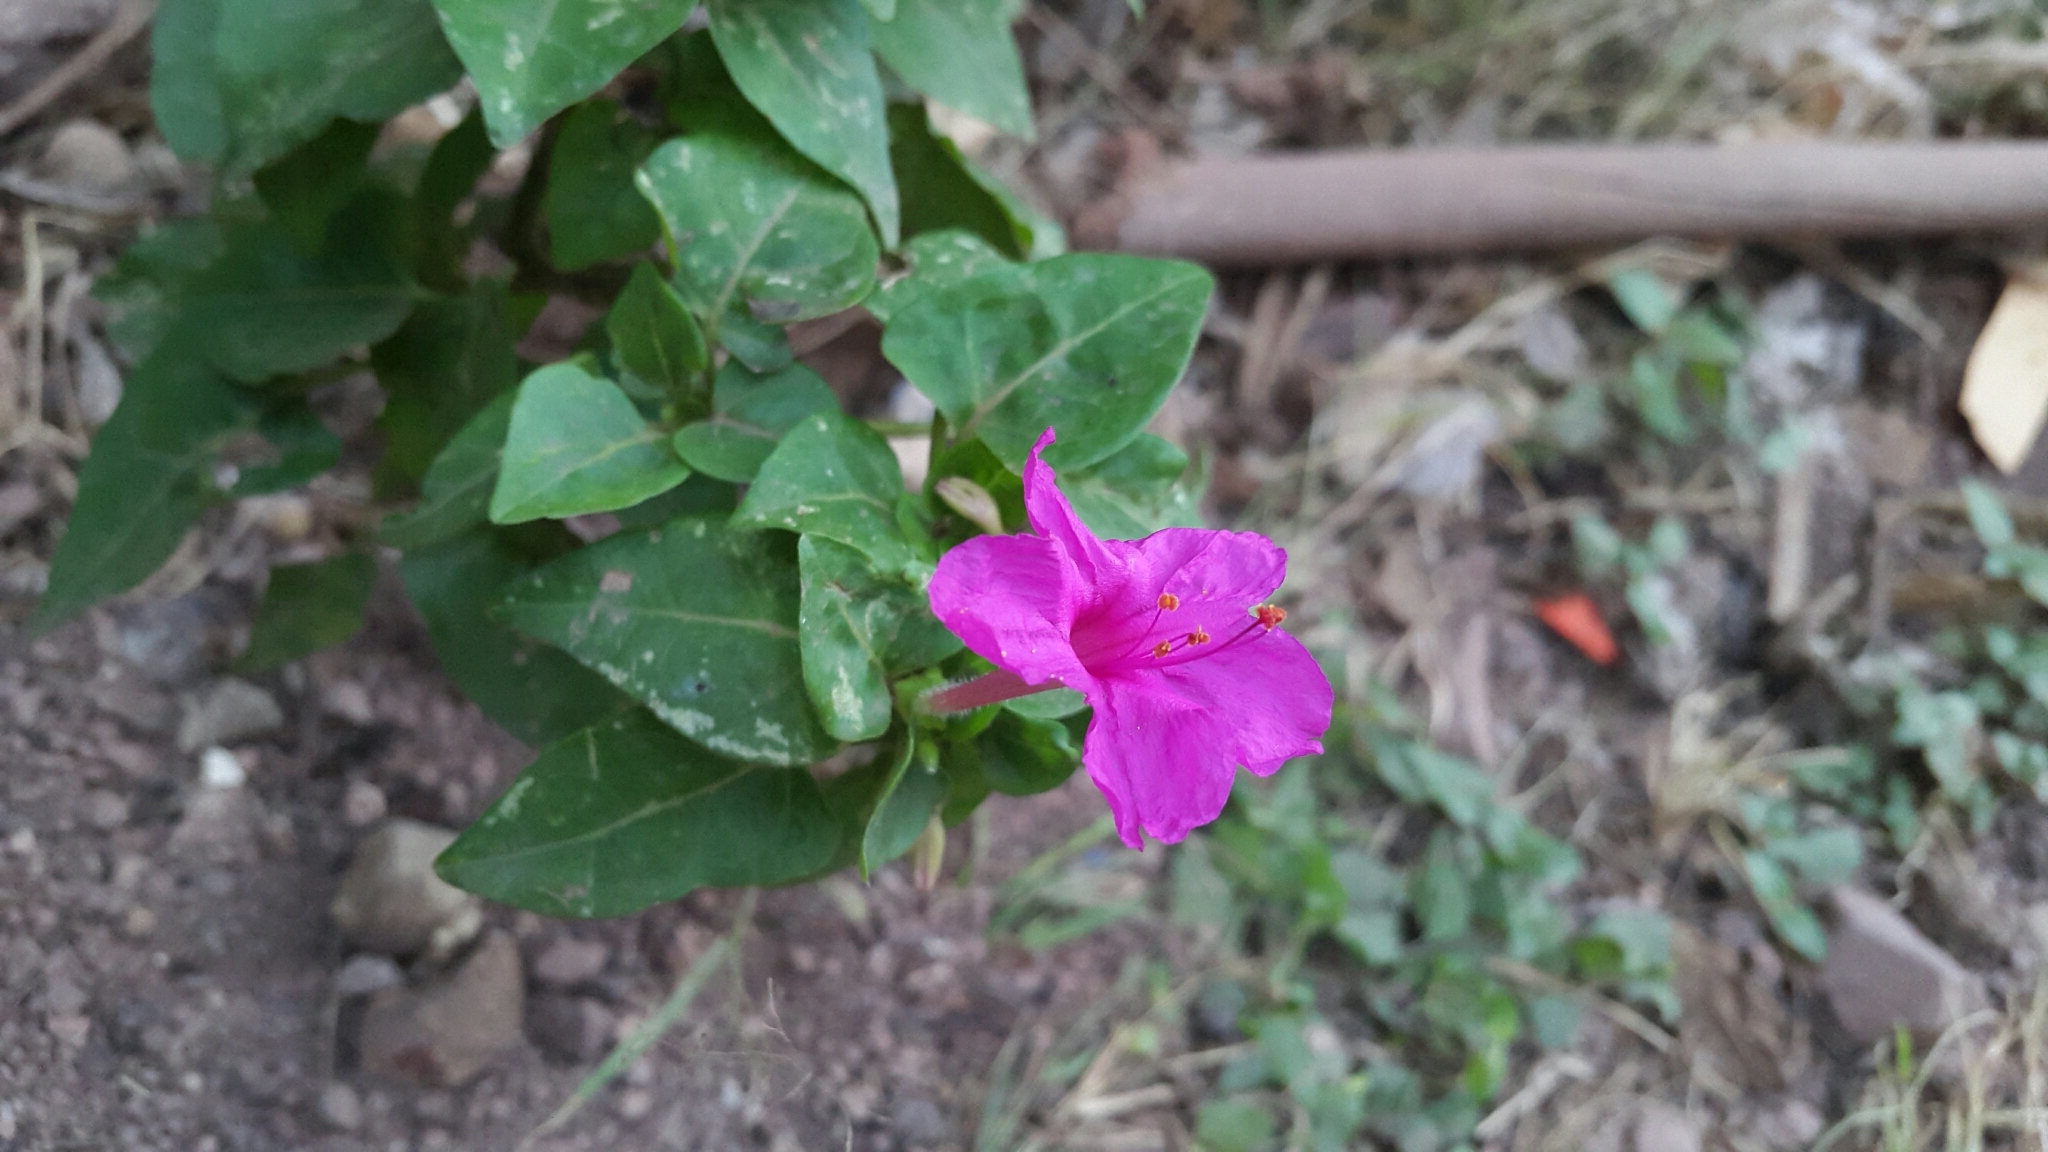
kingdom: Plantae
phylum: Tracheophyta
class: Magnoliopsida
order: Caryophyllales
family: Nyctaginaceae
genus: Mirabilis
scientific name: Mirabilis jalapa
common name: Marvel-of-peru
